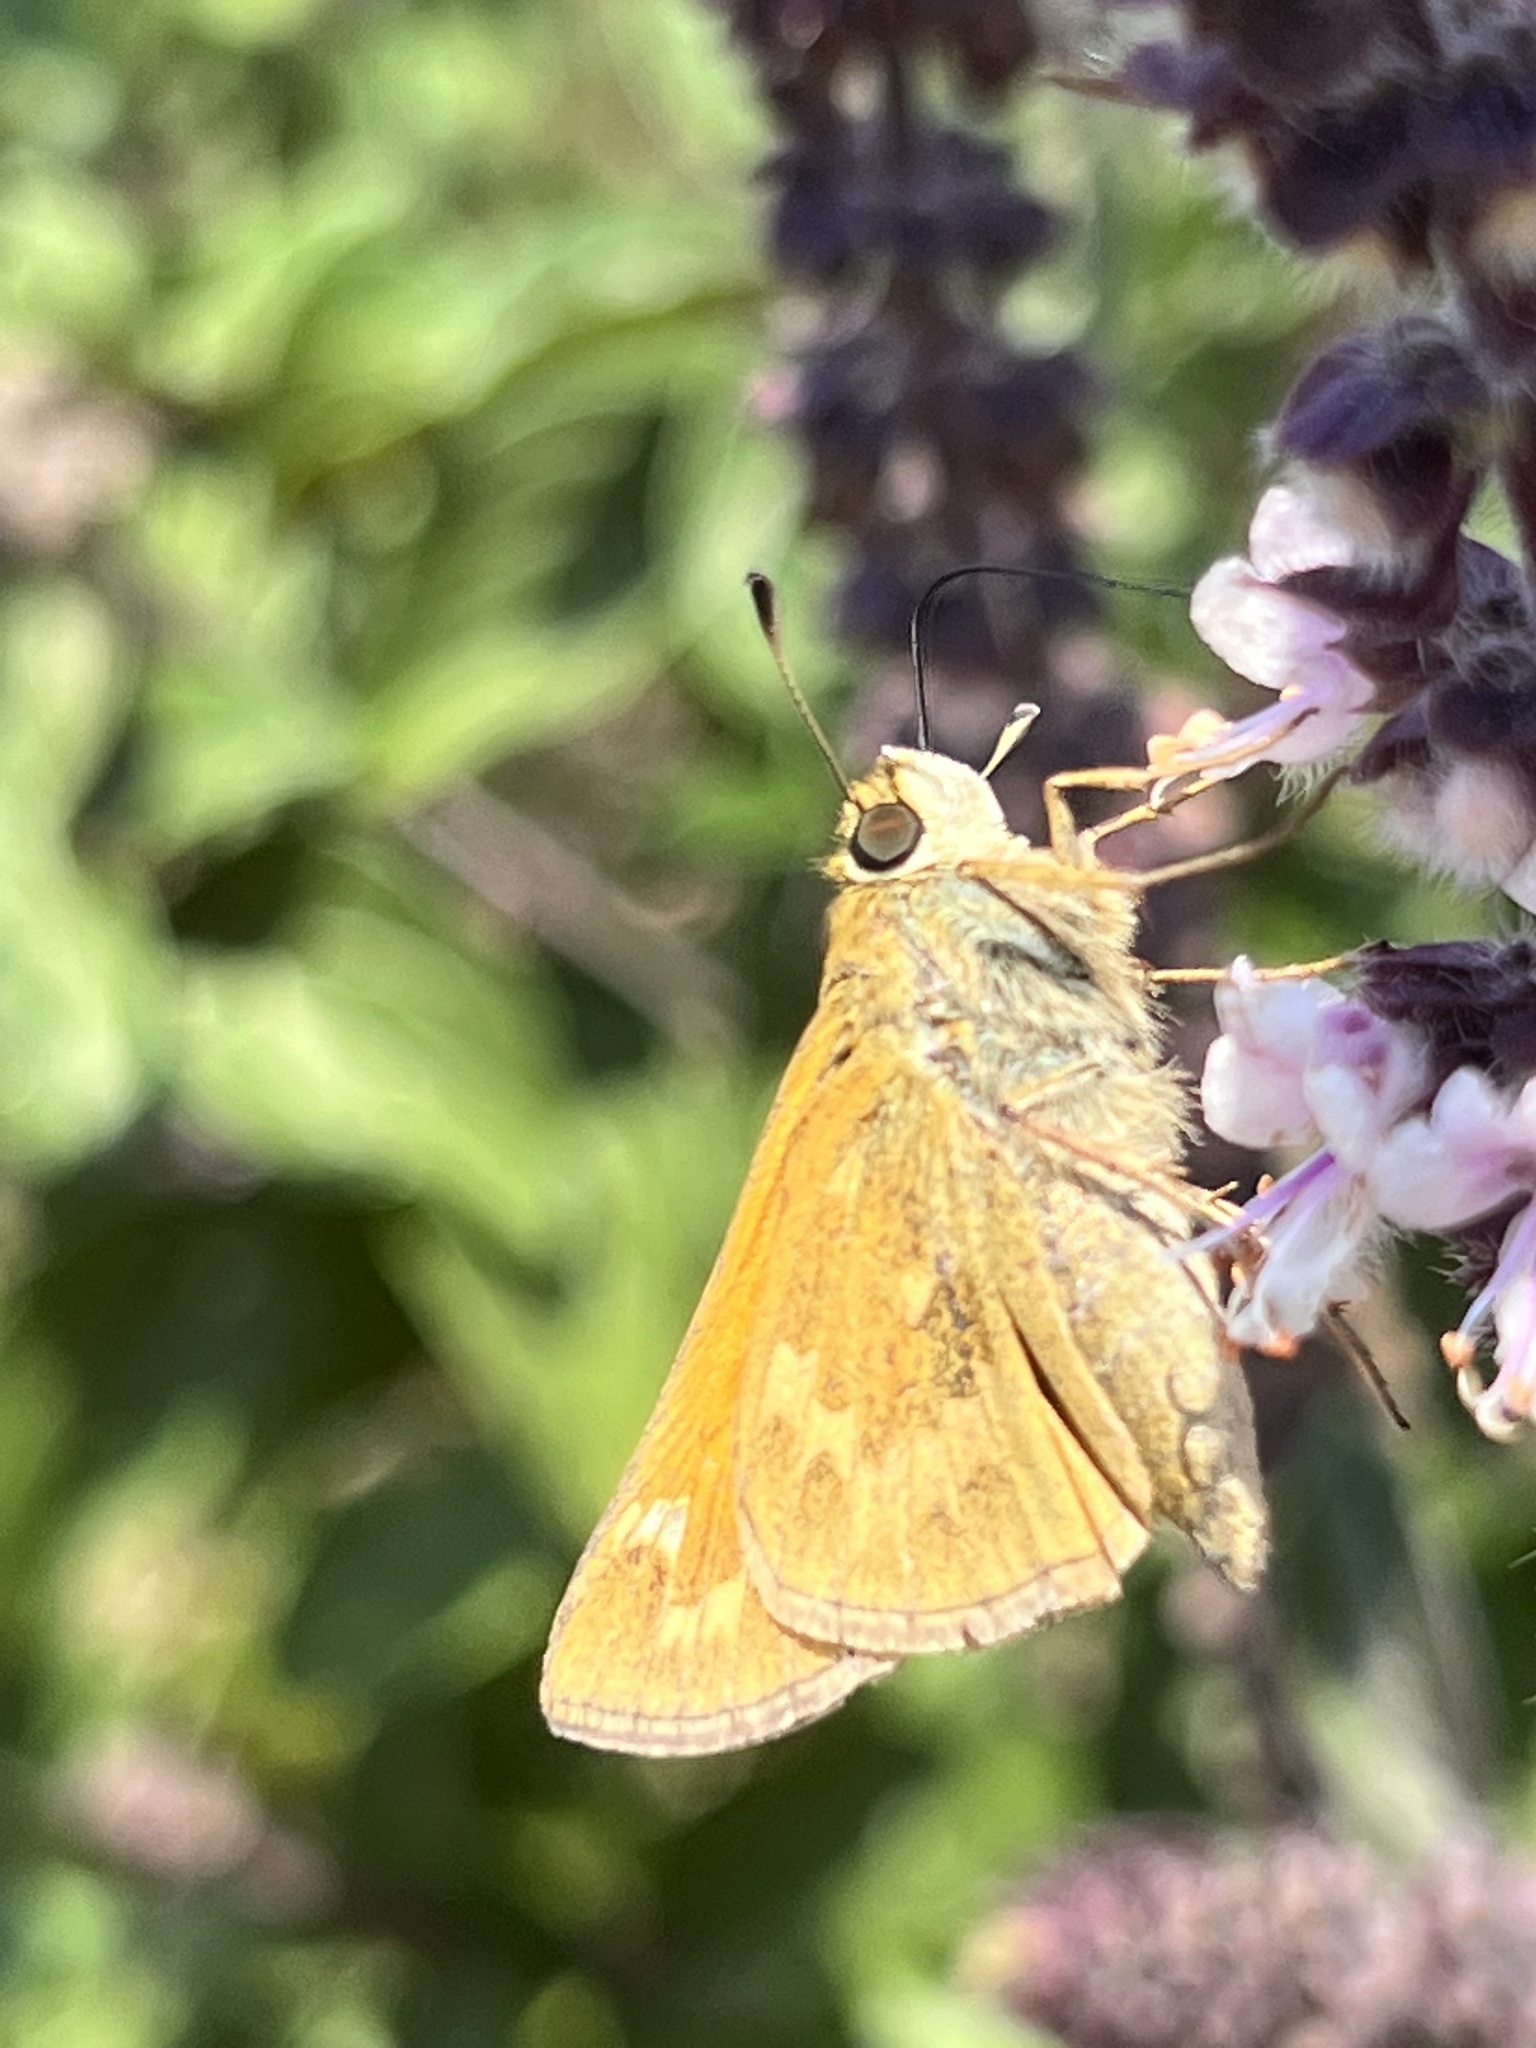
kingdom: Animalia
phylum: Arthropoda
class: Insecta
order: Lepidoptera
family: Hesperiidae
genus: Atalopedes
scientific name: Atalopedes
